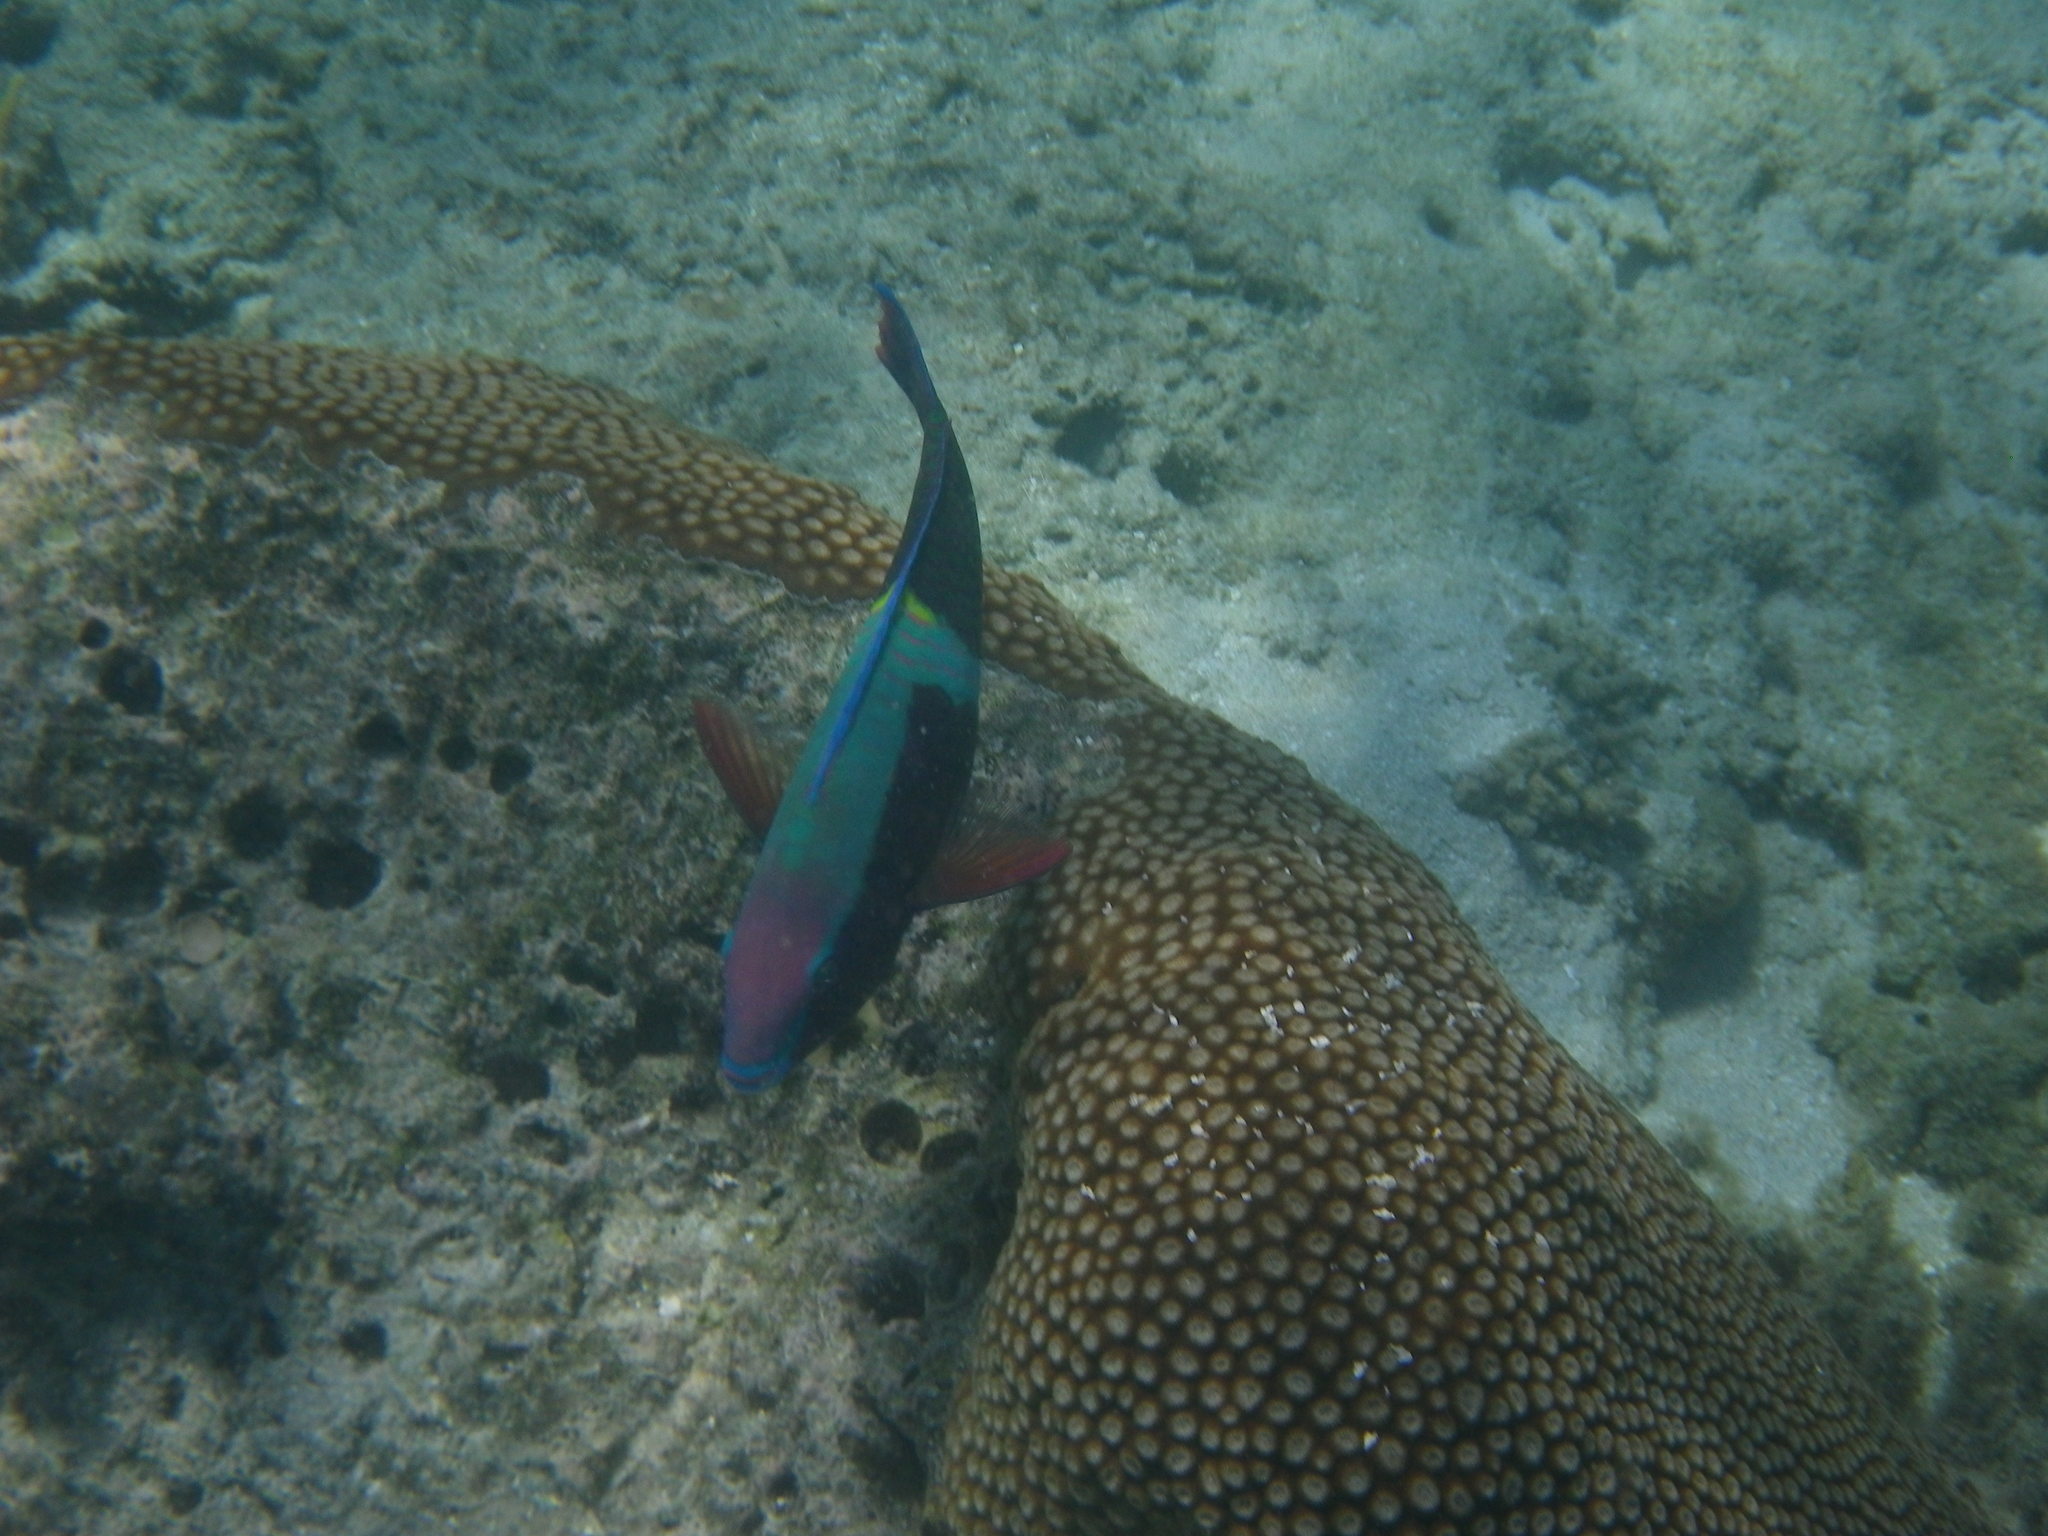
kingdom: Animalia
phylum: Chordata
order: Perciformes
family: Scaridae
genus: Scarus
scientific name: Scarus schlegeli
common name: Schlegel's parrotfish
